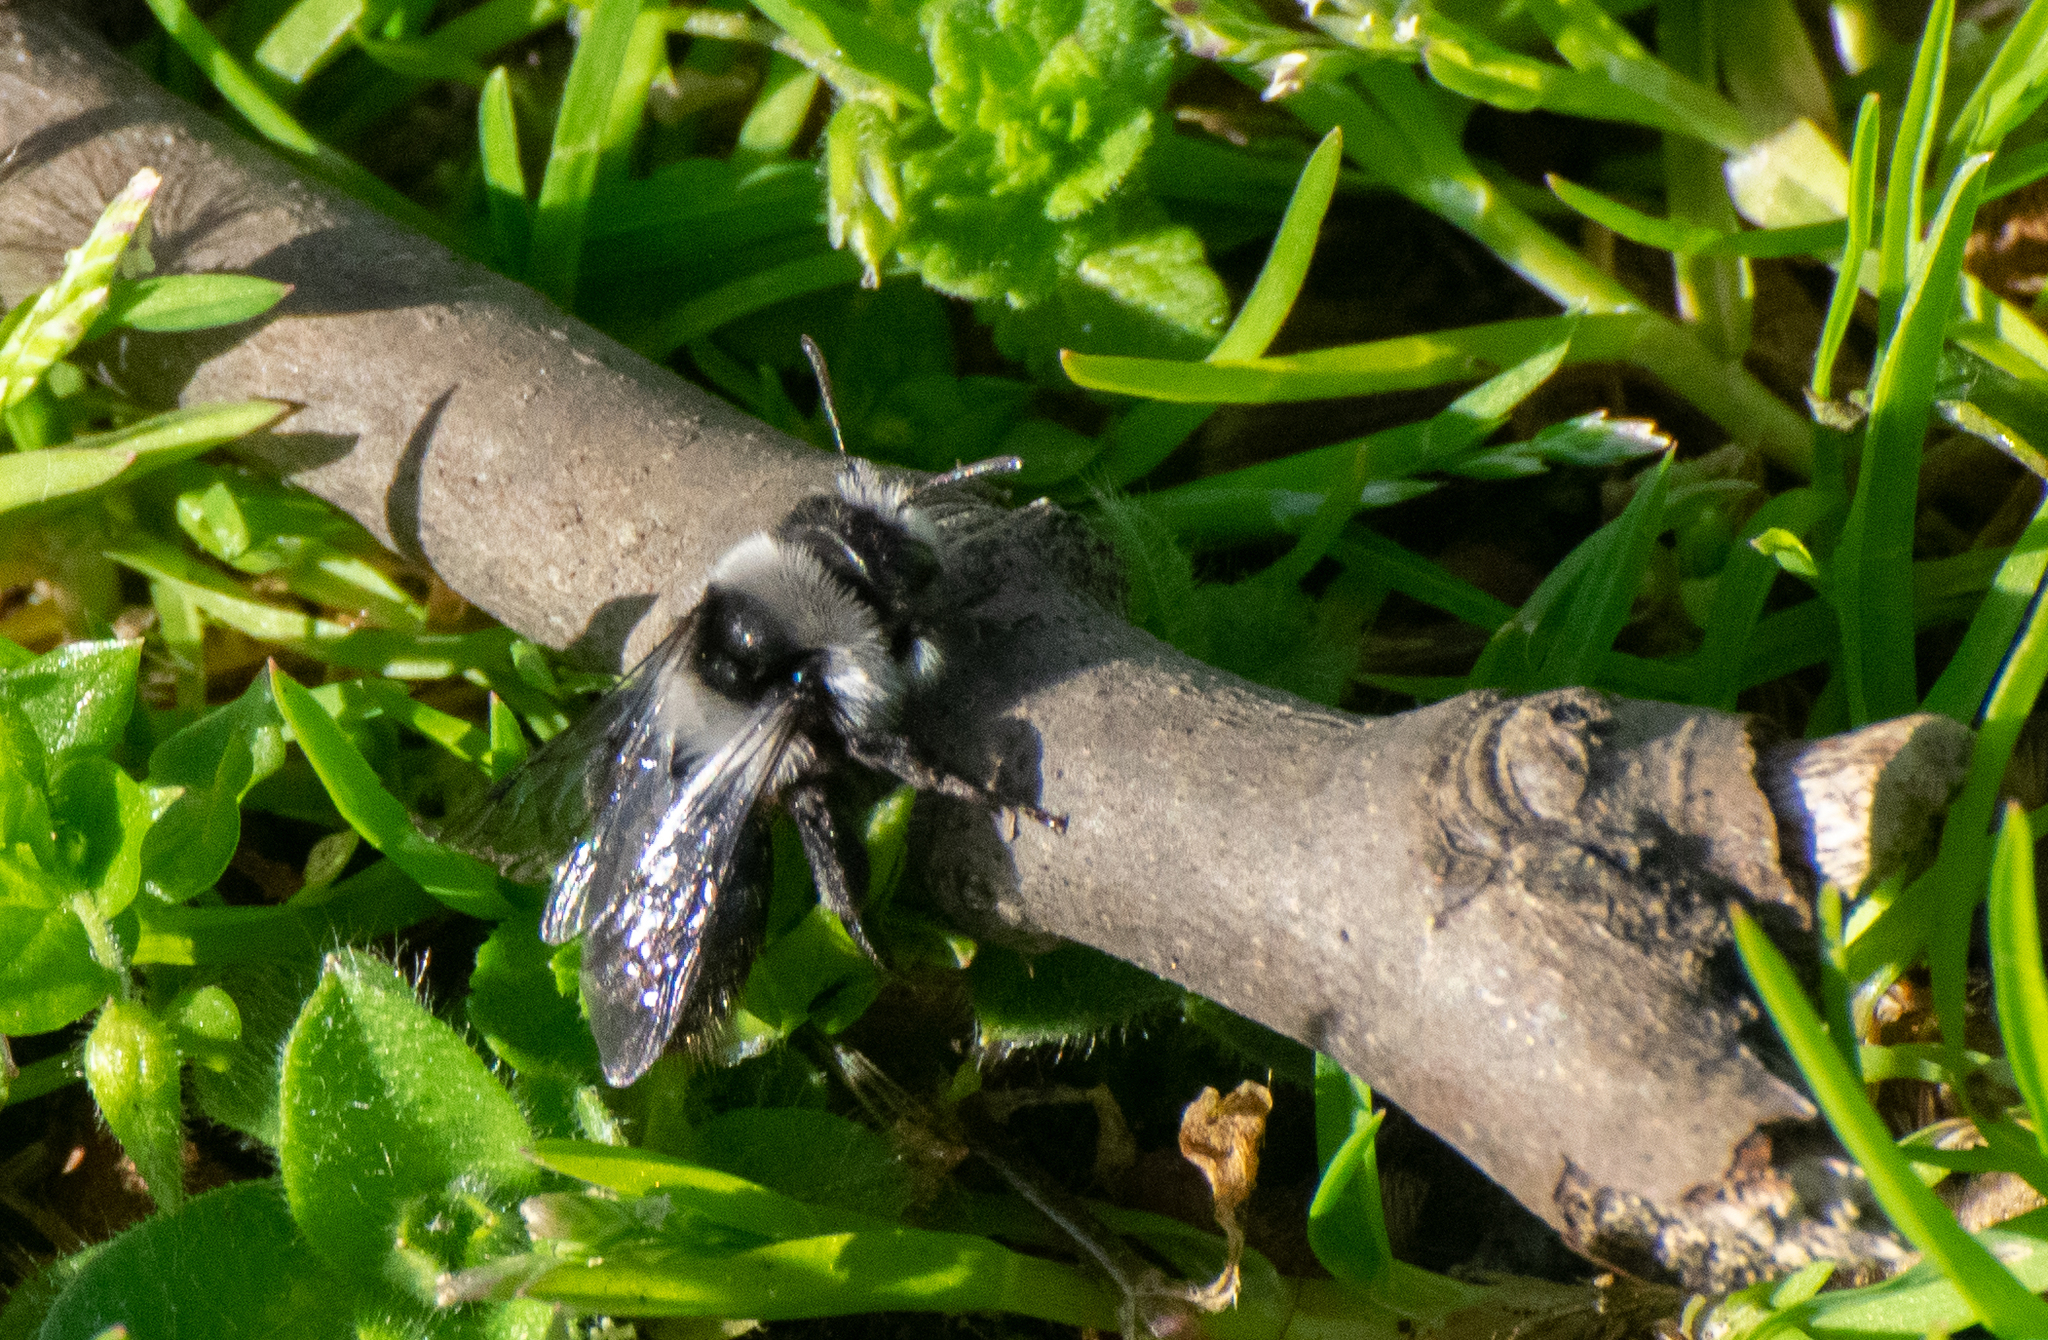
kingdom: Animalia
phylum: Arthropoda
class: Insecta
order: Hymenoptera
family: Andrenidae
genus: Andrena
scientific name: Andrena cineraria
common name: Ashy mining bee
